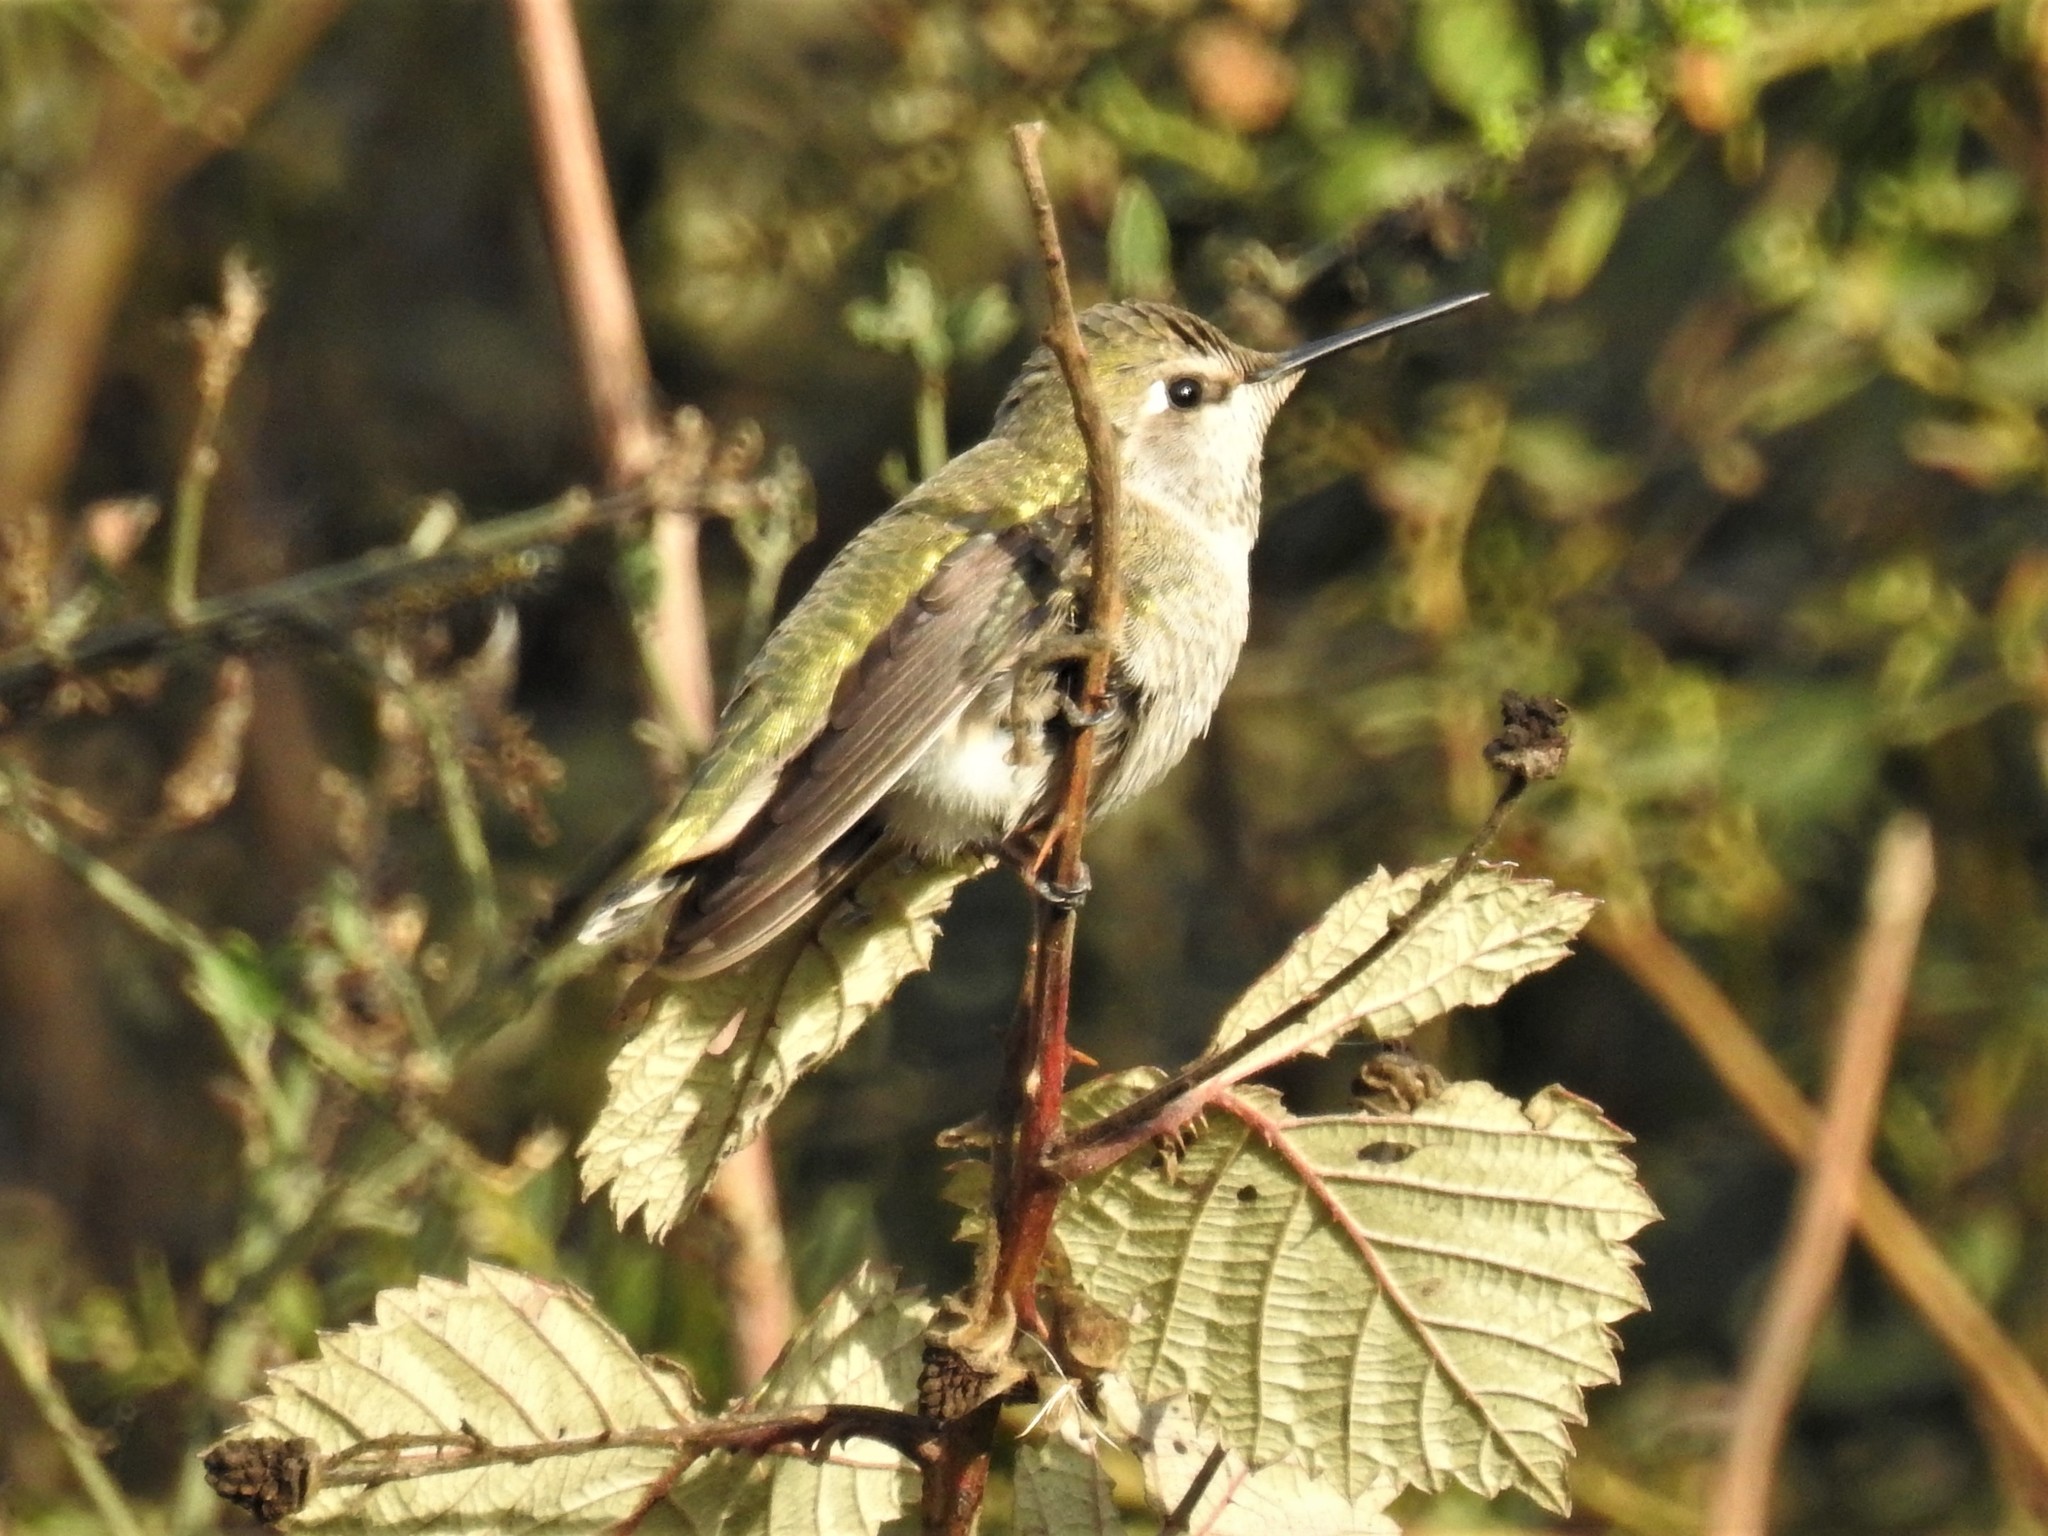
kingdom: Animalia
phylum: Chordata
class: Aves
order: Apodiformes
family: Trochilidae
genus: Calypte
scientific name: Calypte anna
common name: Anna's hummingbird
